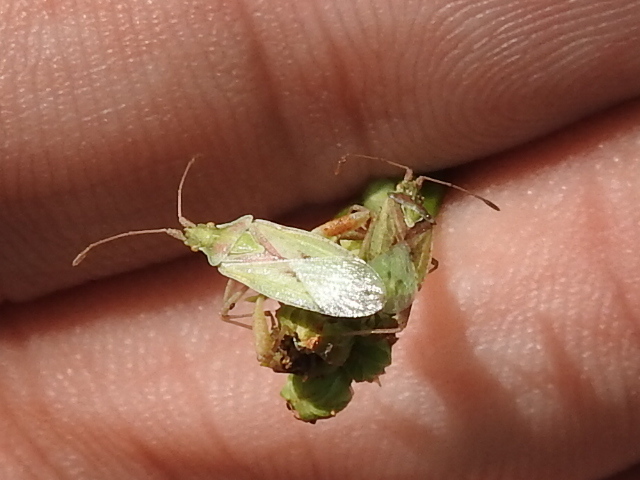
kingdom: Animalia
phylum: Arthropoda
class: Insecta
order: Hemiptera
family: Rhopalidae
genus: Harmostes
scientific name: Harmostes reflexulus
